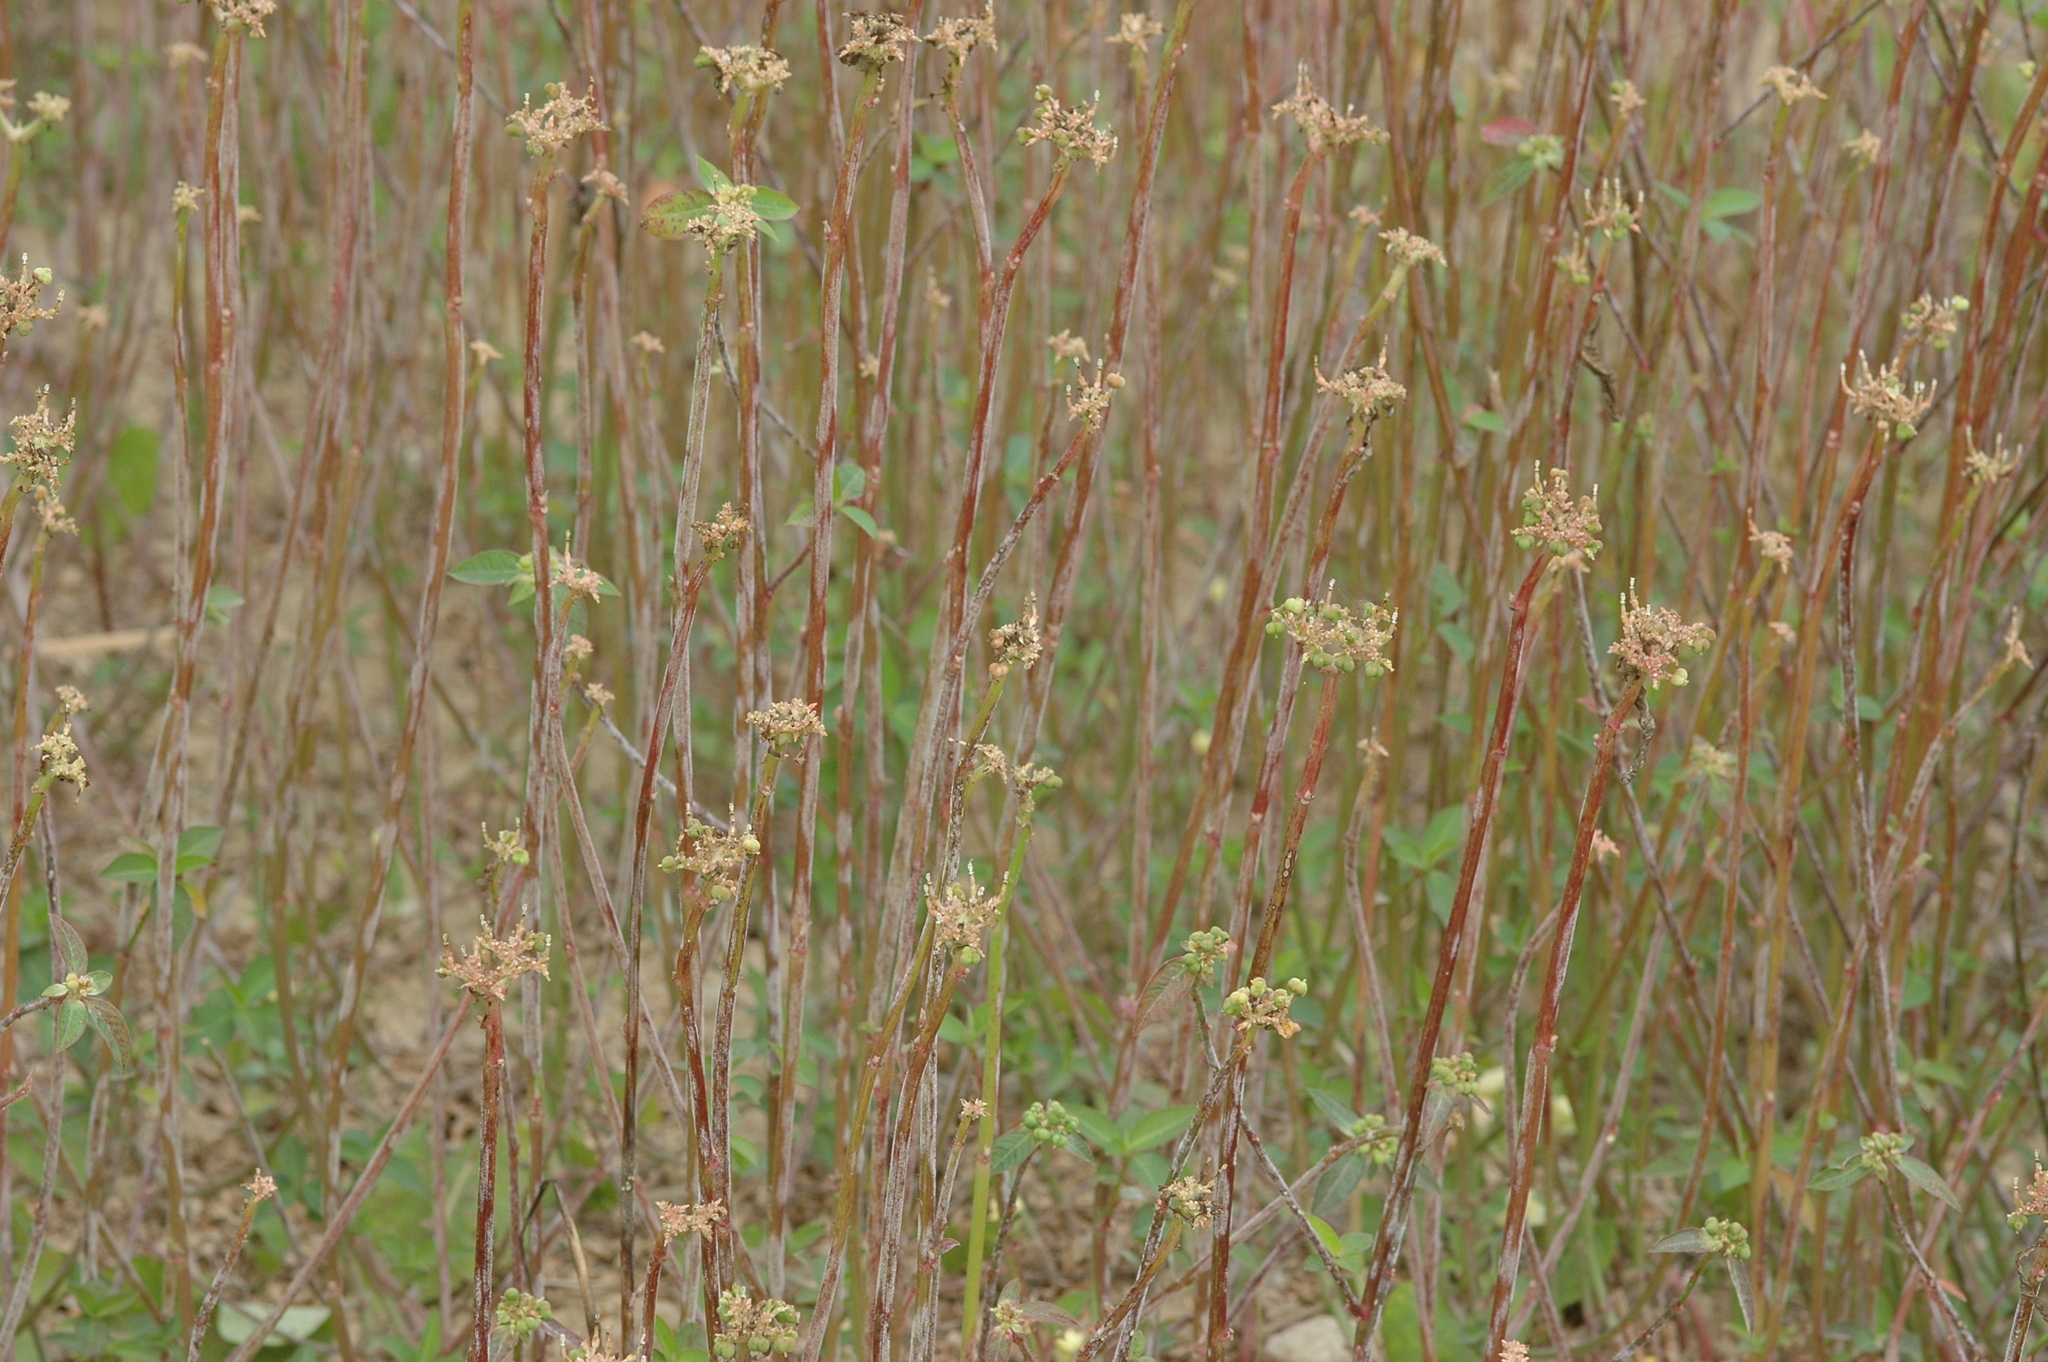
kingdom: Plantae
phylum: Tracheophyta
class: Magnoliopsida
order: Malpighiales
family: Euphorbiaceae
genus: Euphorbia
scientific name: Euphorbia heterophylla
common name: Mexican fireplant
